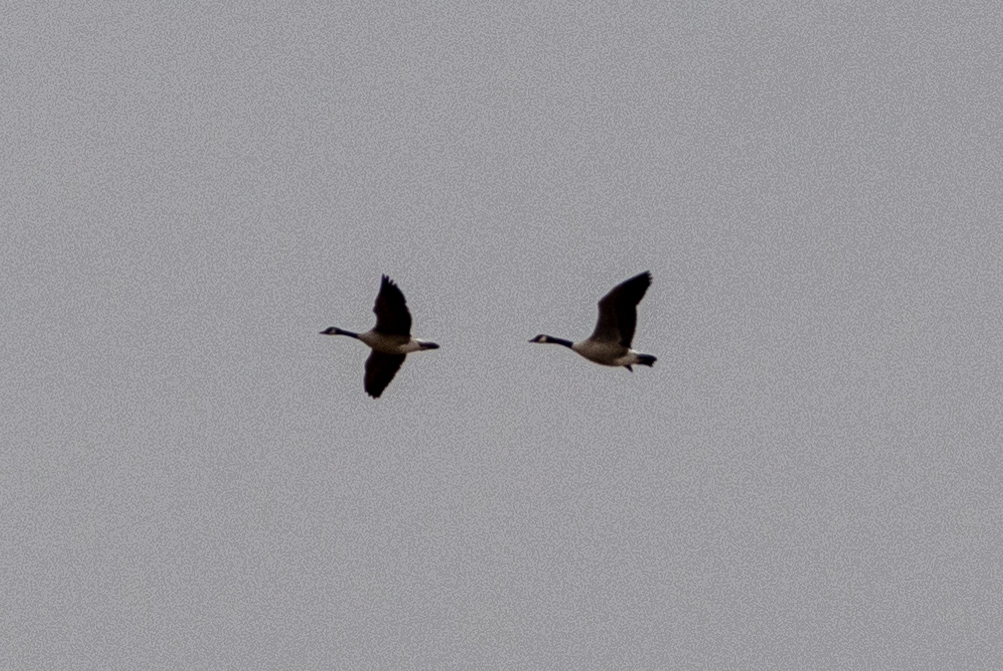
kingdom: Animalia
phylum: Chordata
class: Aves
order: Anseriformes
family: Anatidae
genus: Branta
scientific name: Branta canadensis
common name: Canada goose
